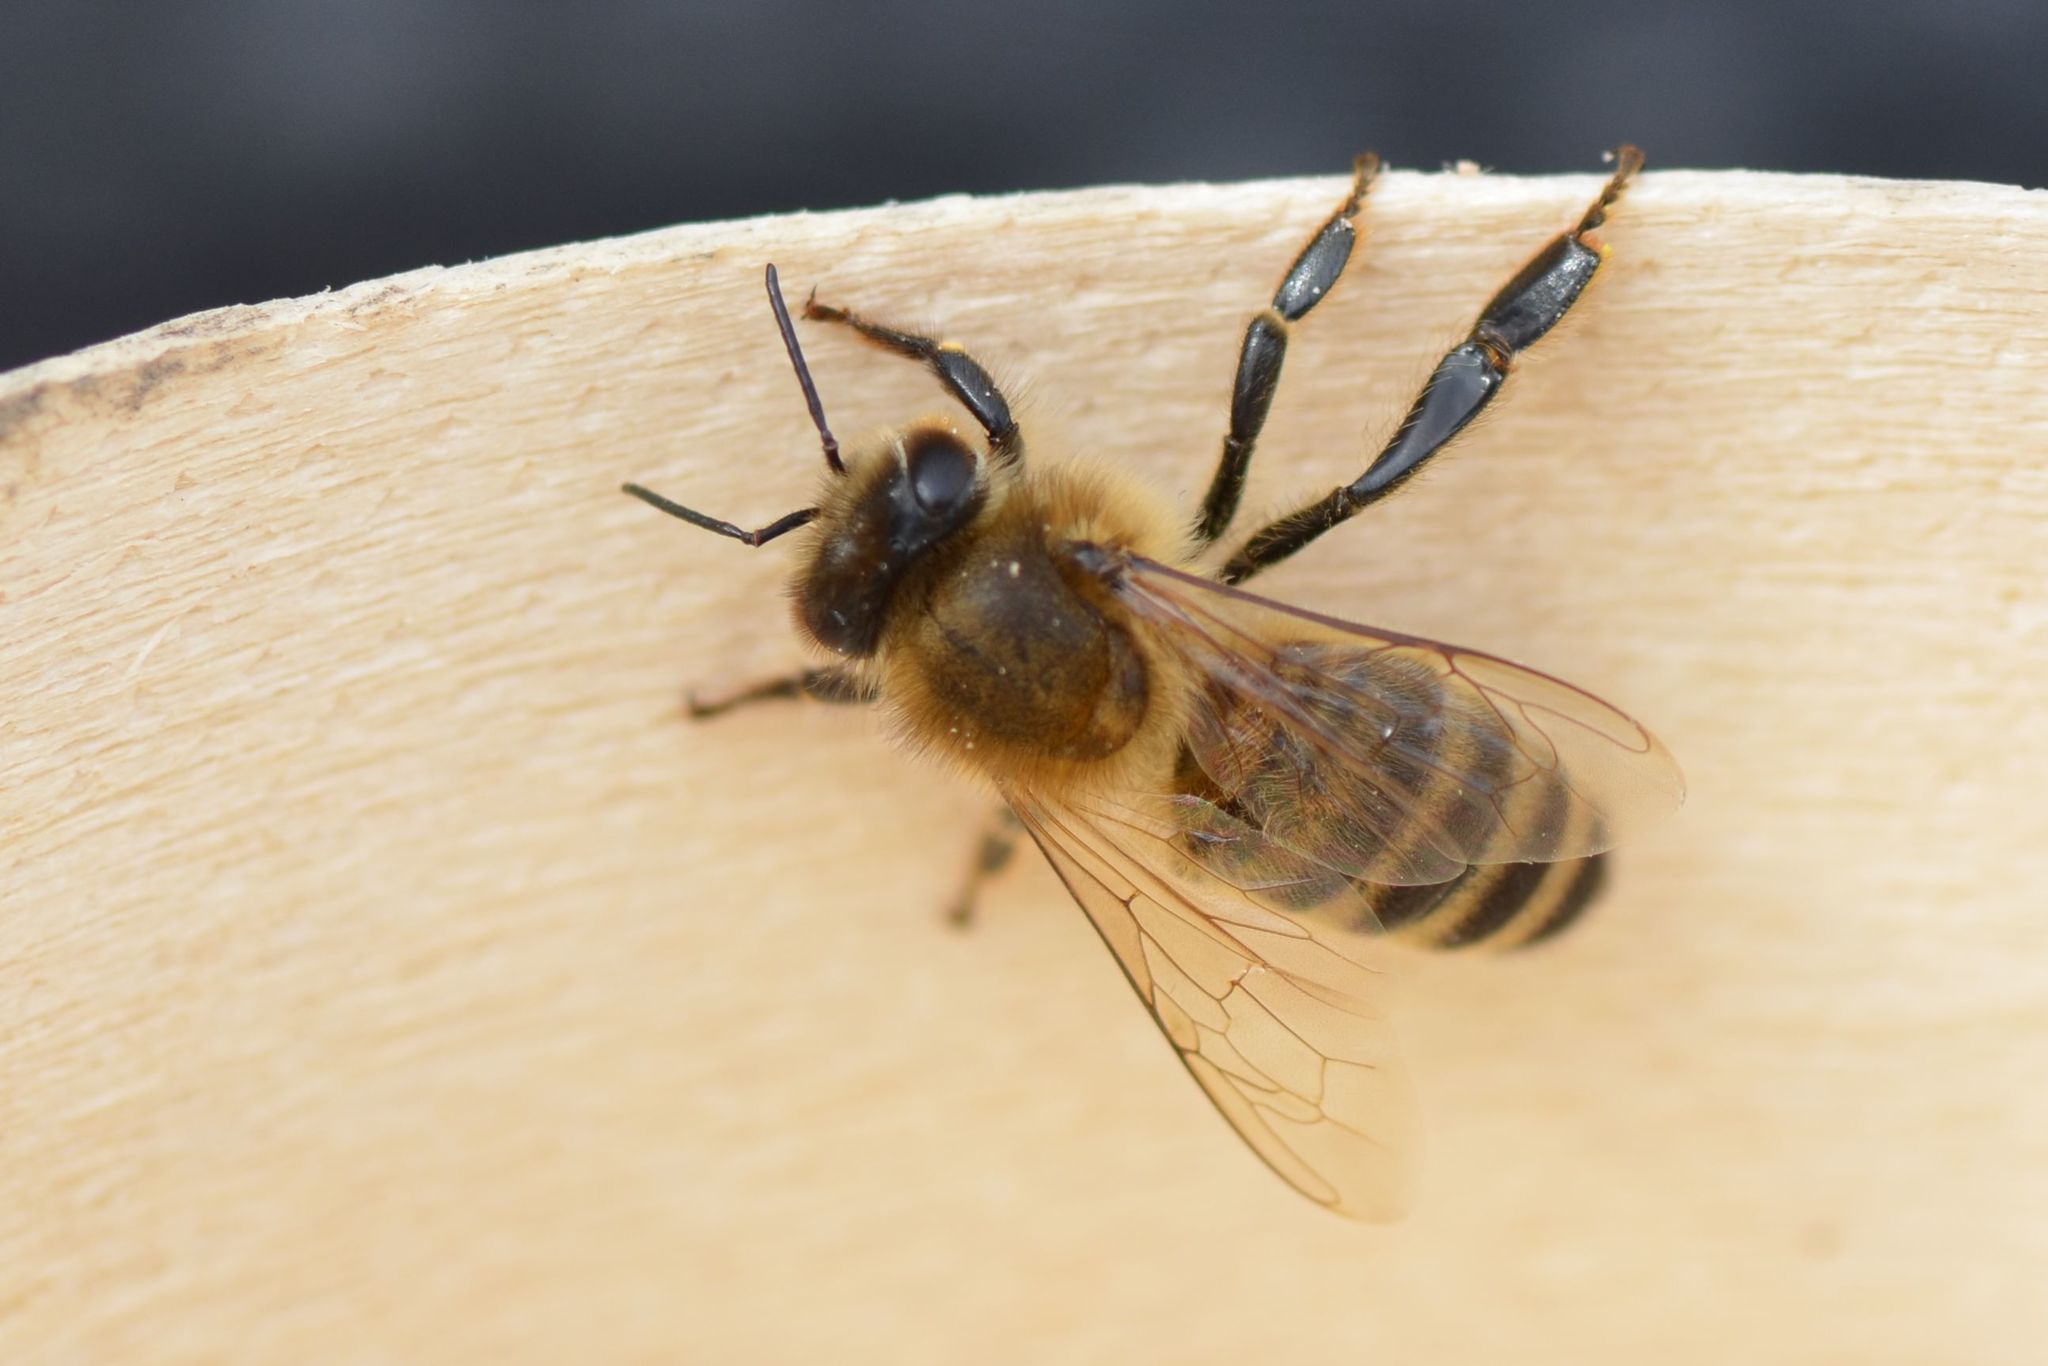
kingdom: Animalia
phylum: Arthropoda
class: Insecta
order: Hymenoptera
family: Apidae
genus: Apis
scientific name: Apis mellifera
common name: Honey bee
